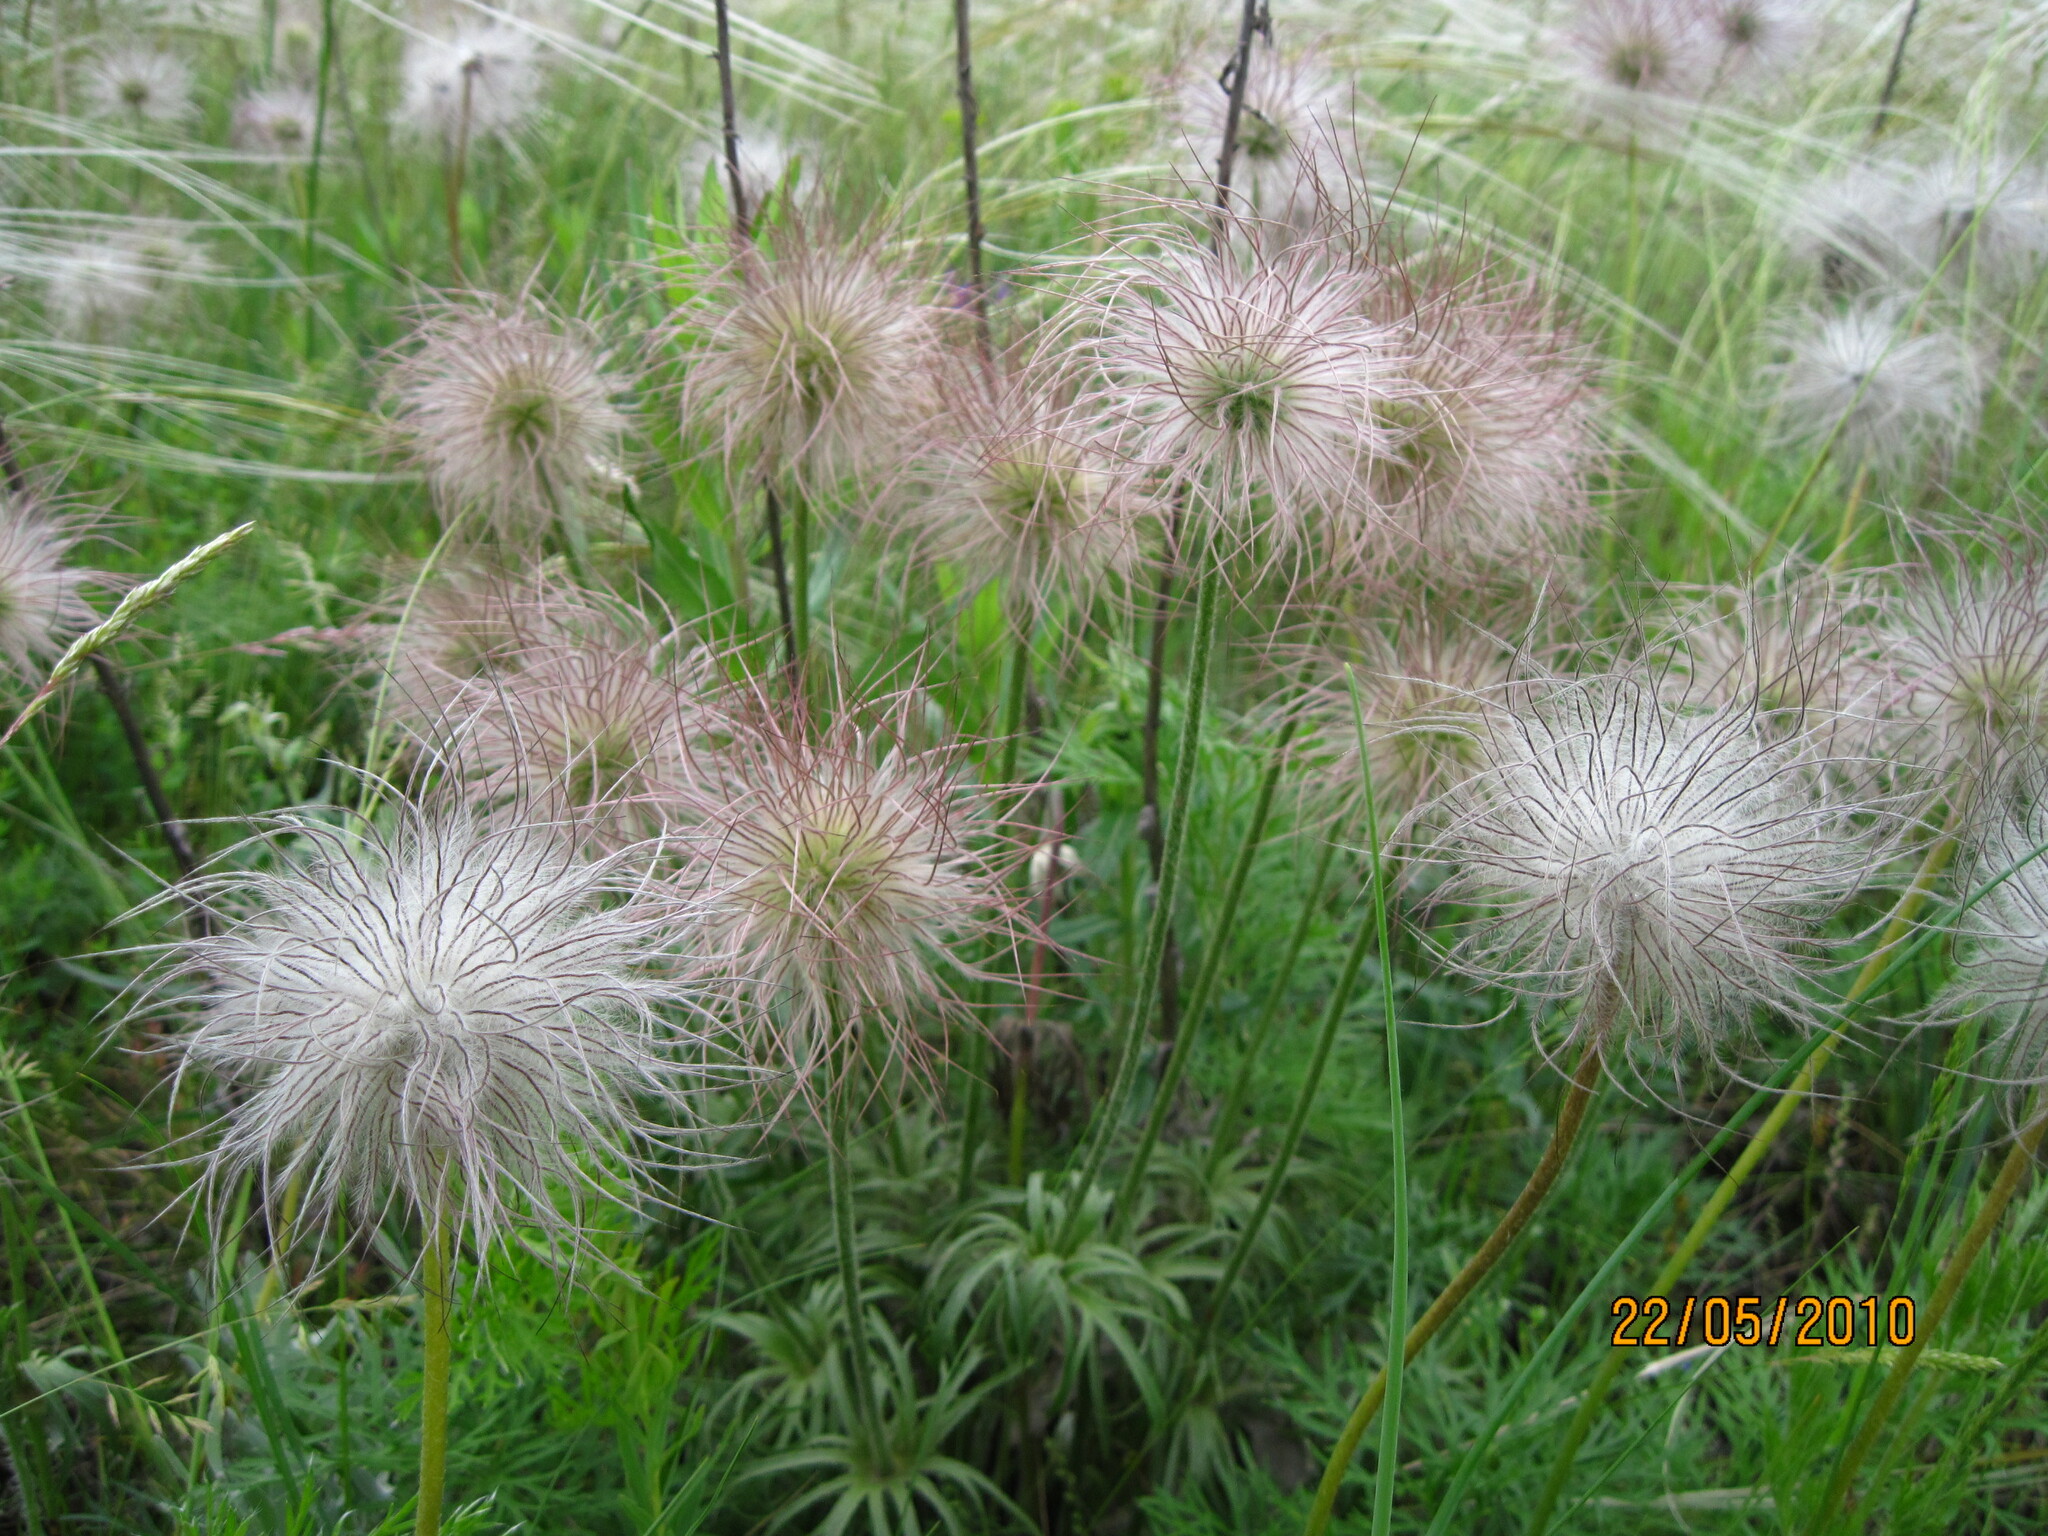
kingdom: Plantae
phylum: Tracheophyta
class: Magnoliopsida
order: Ranunculales
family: Ranunculaceae
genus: Pulsatilla
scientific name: Pulsatilla pratensis
